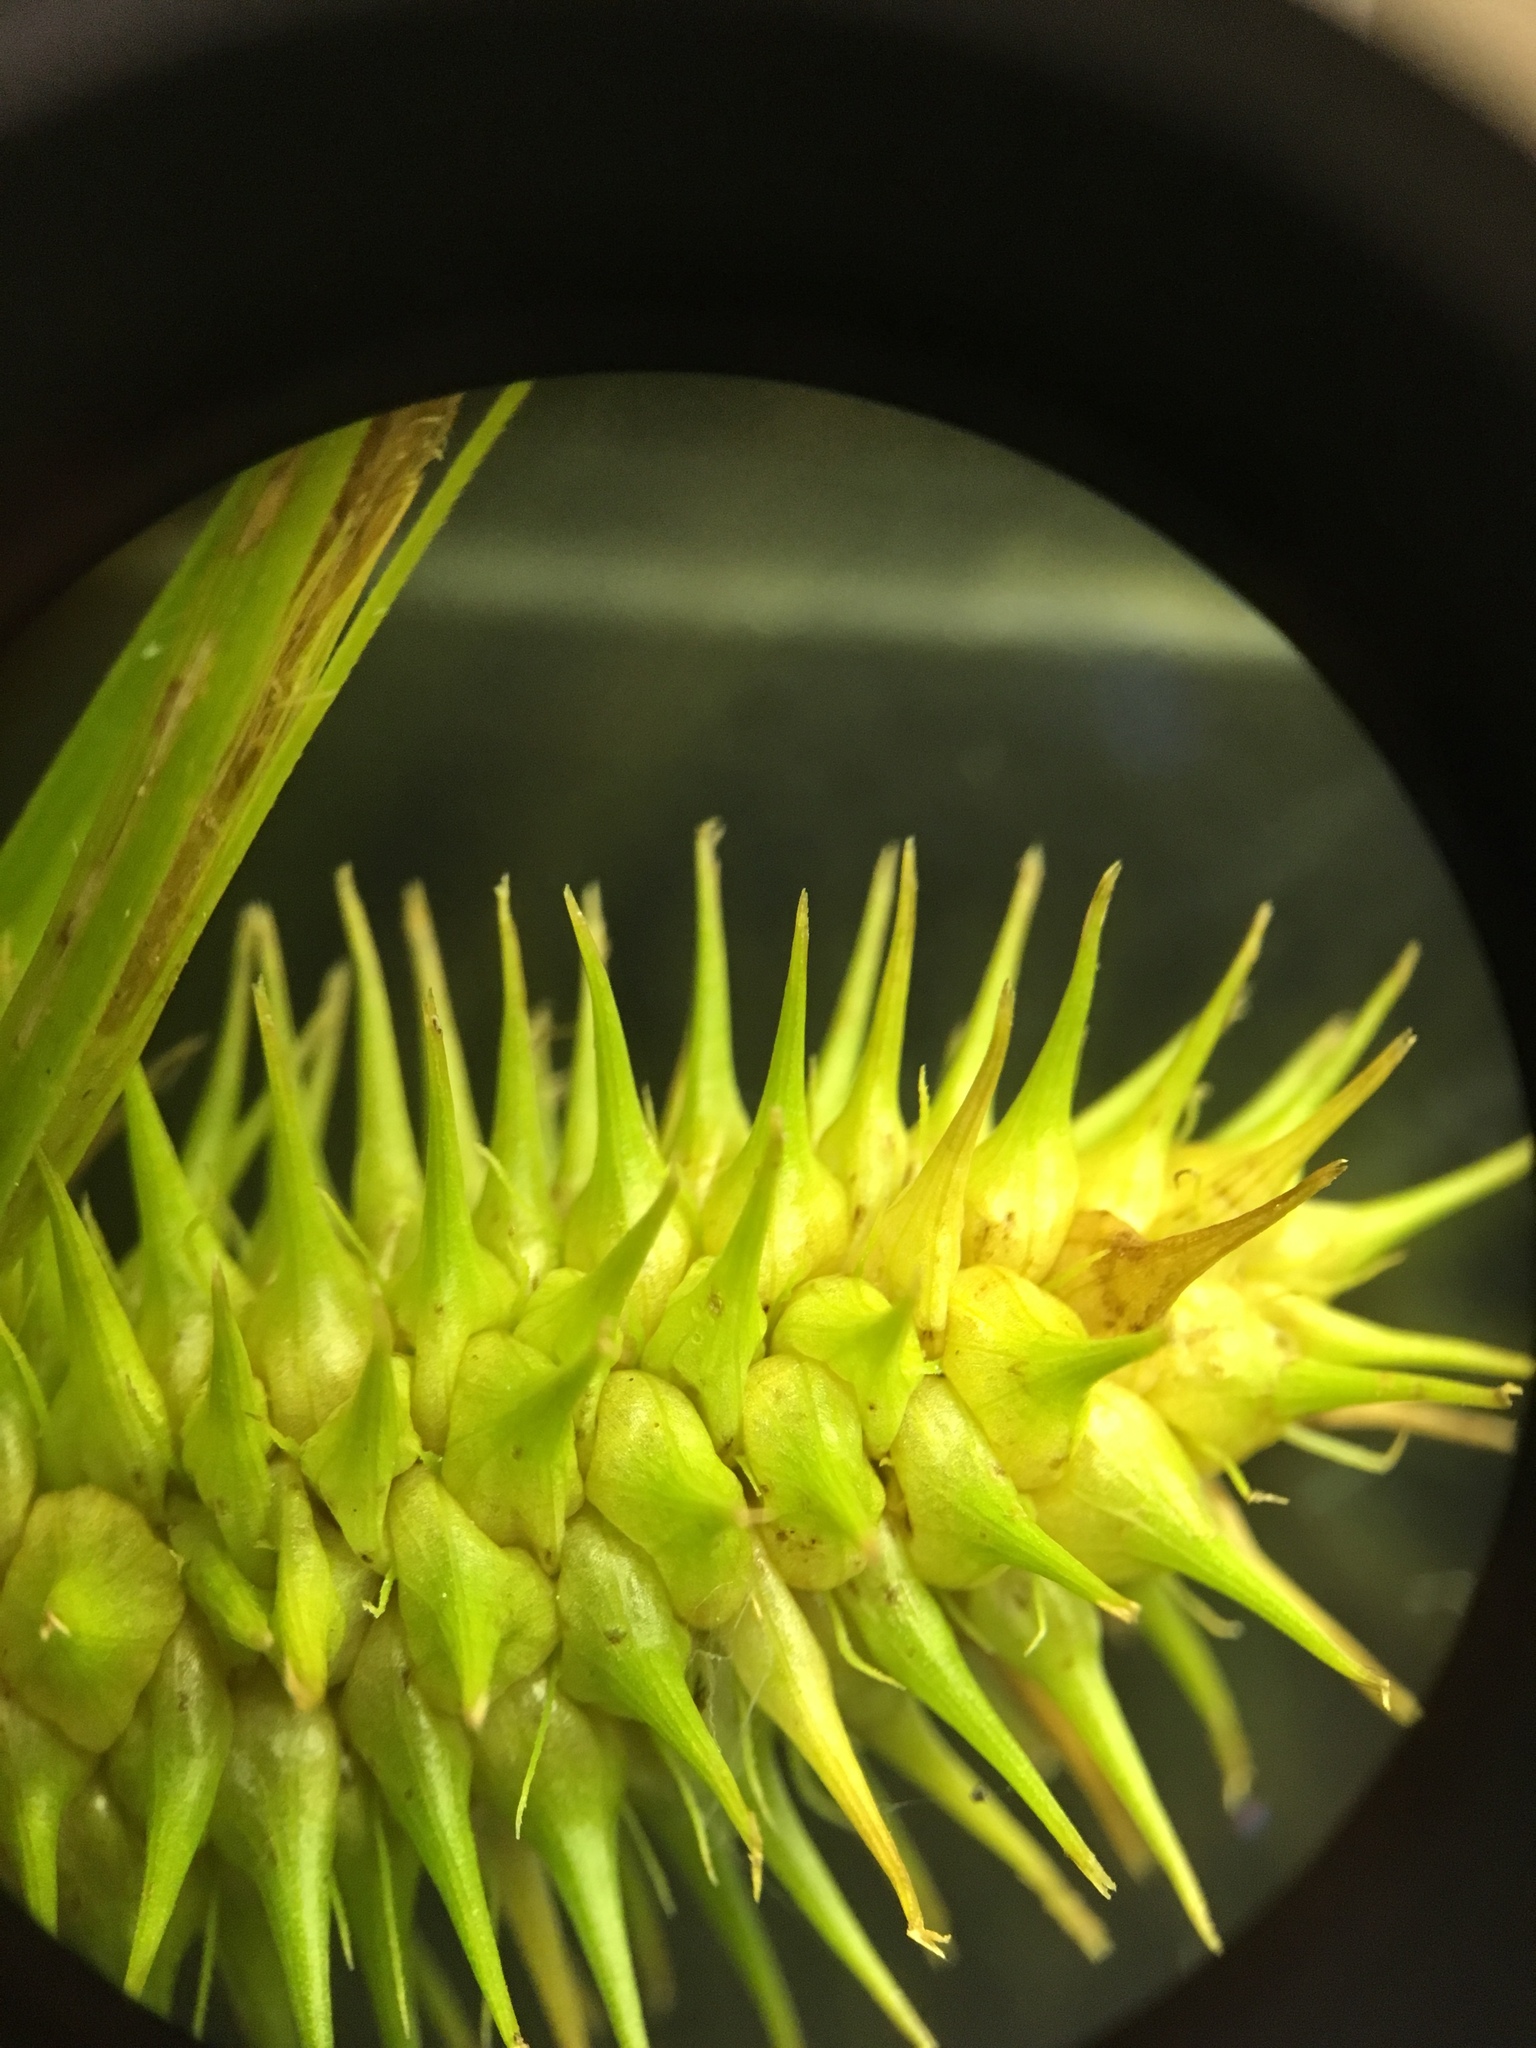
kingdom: Plantae
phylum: Tracheophyta
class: Liliopsida
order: Poales
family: Cyperaceae
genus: Carex
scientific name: Carex lurida
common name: Sallow sedge
